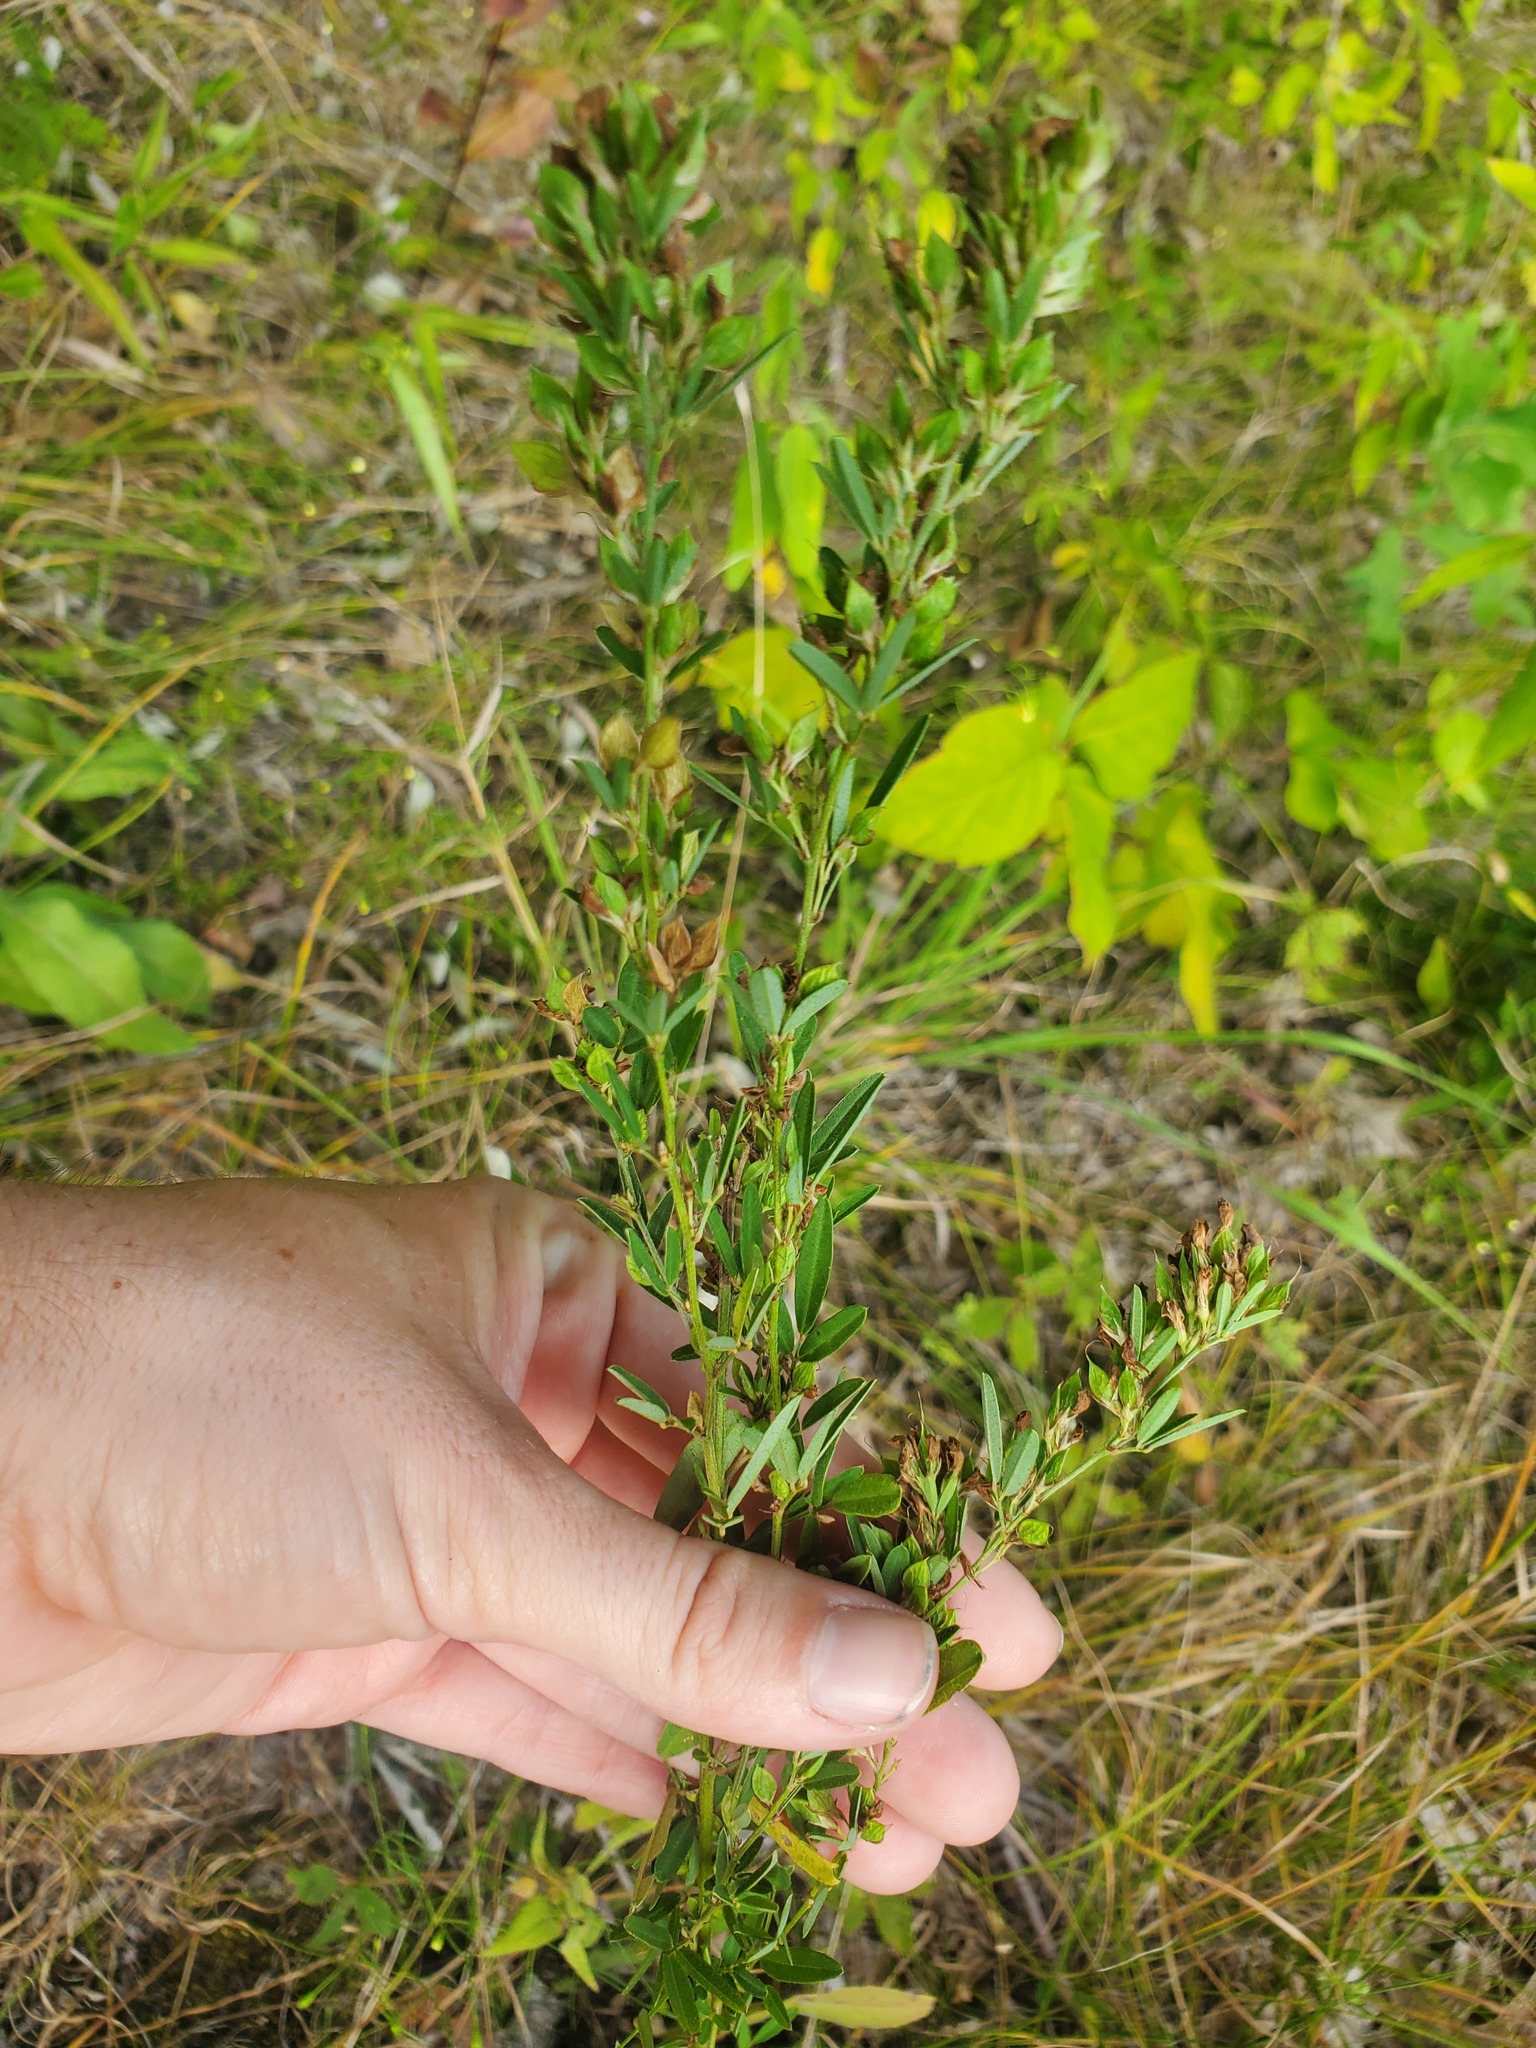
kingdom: Plantae
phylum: Tracheophyta
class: Magnoliopsida
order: Fabales
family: Fabaceae
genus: Lespedeza
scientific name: Lespedeza virginica
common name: Slender bush-clover
